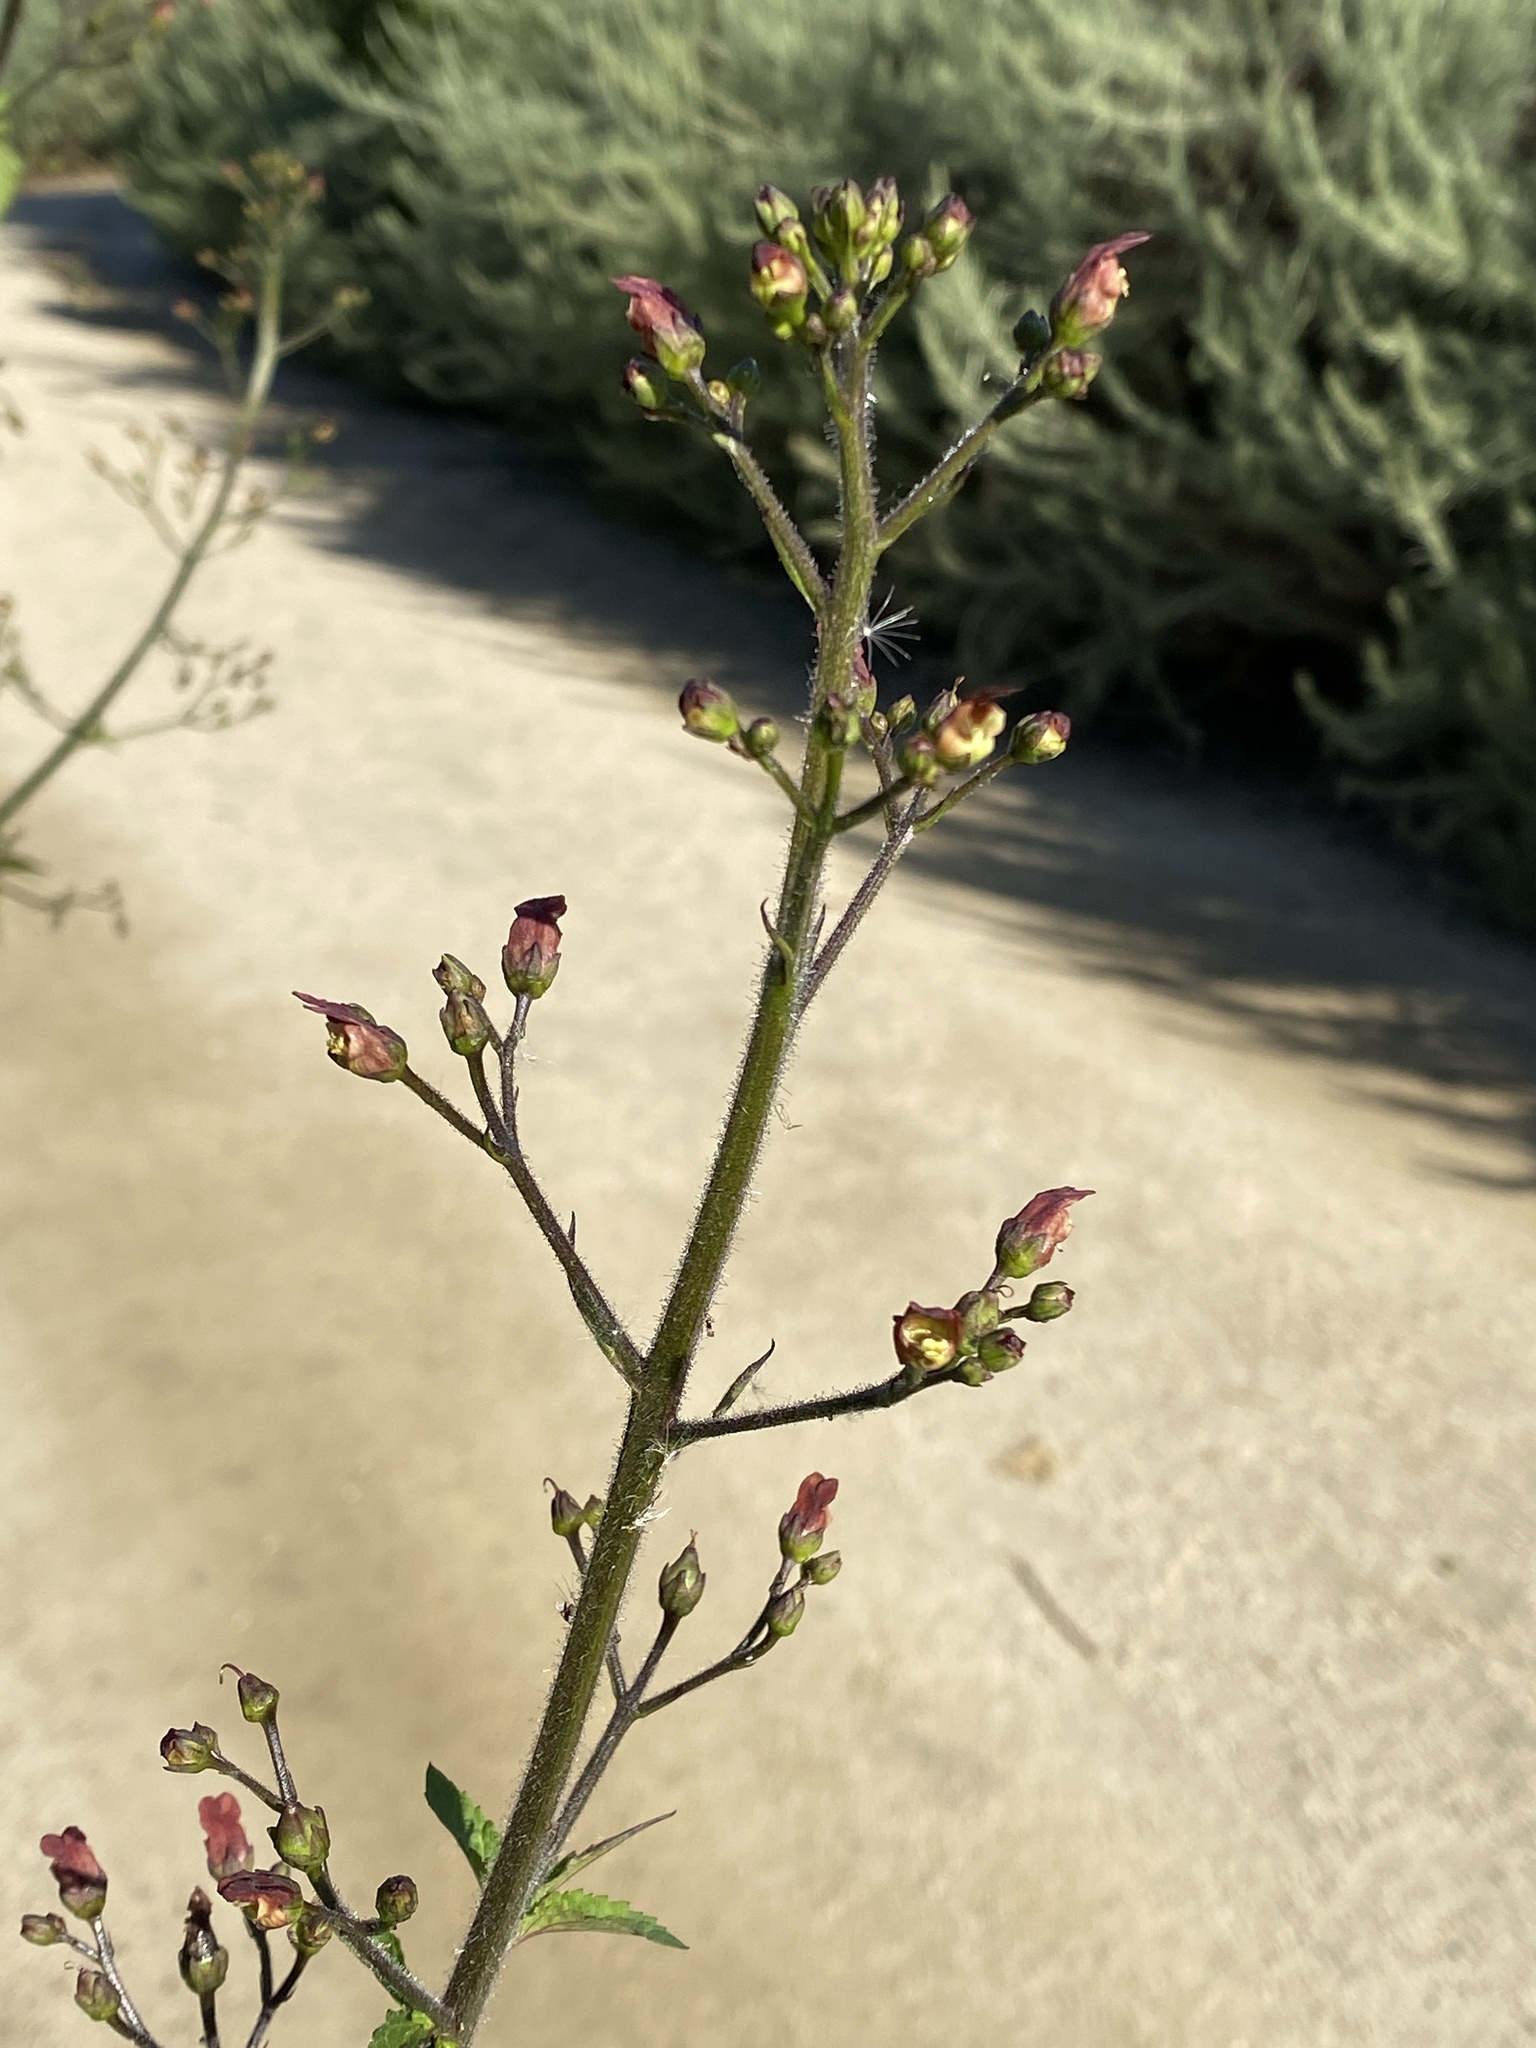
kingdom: Plantae
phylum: Tracheophyta
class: Magnoliopsida
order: Lamiales
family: Scrophulariaceae
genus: Scrophularia
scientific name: Scrophularia californica
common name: California figwort
